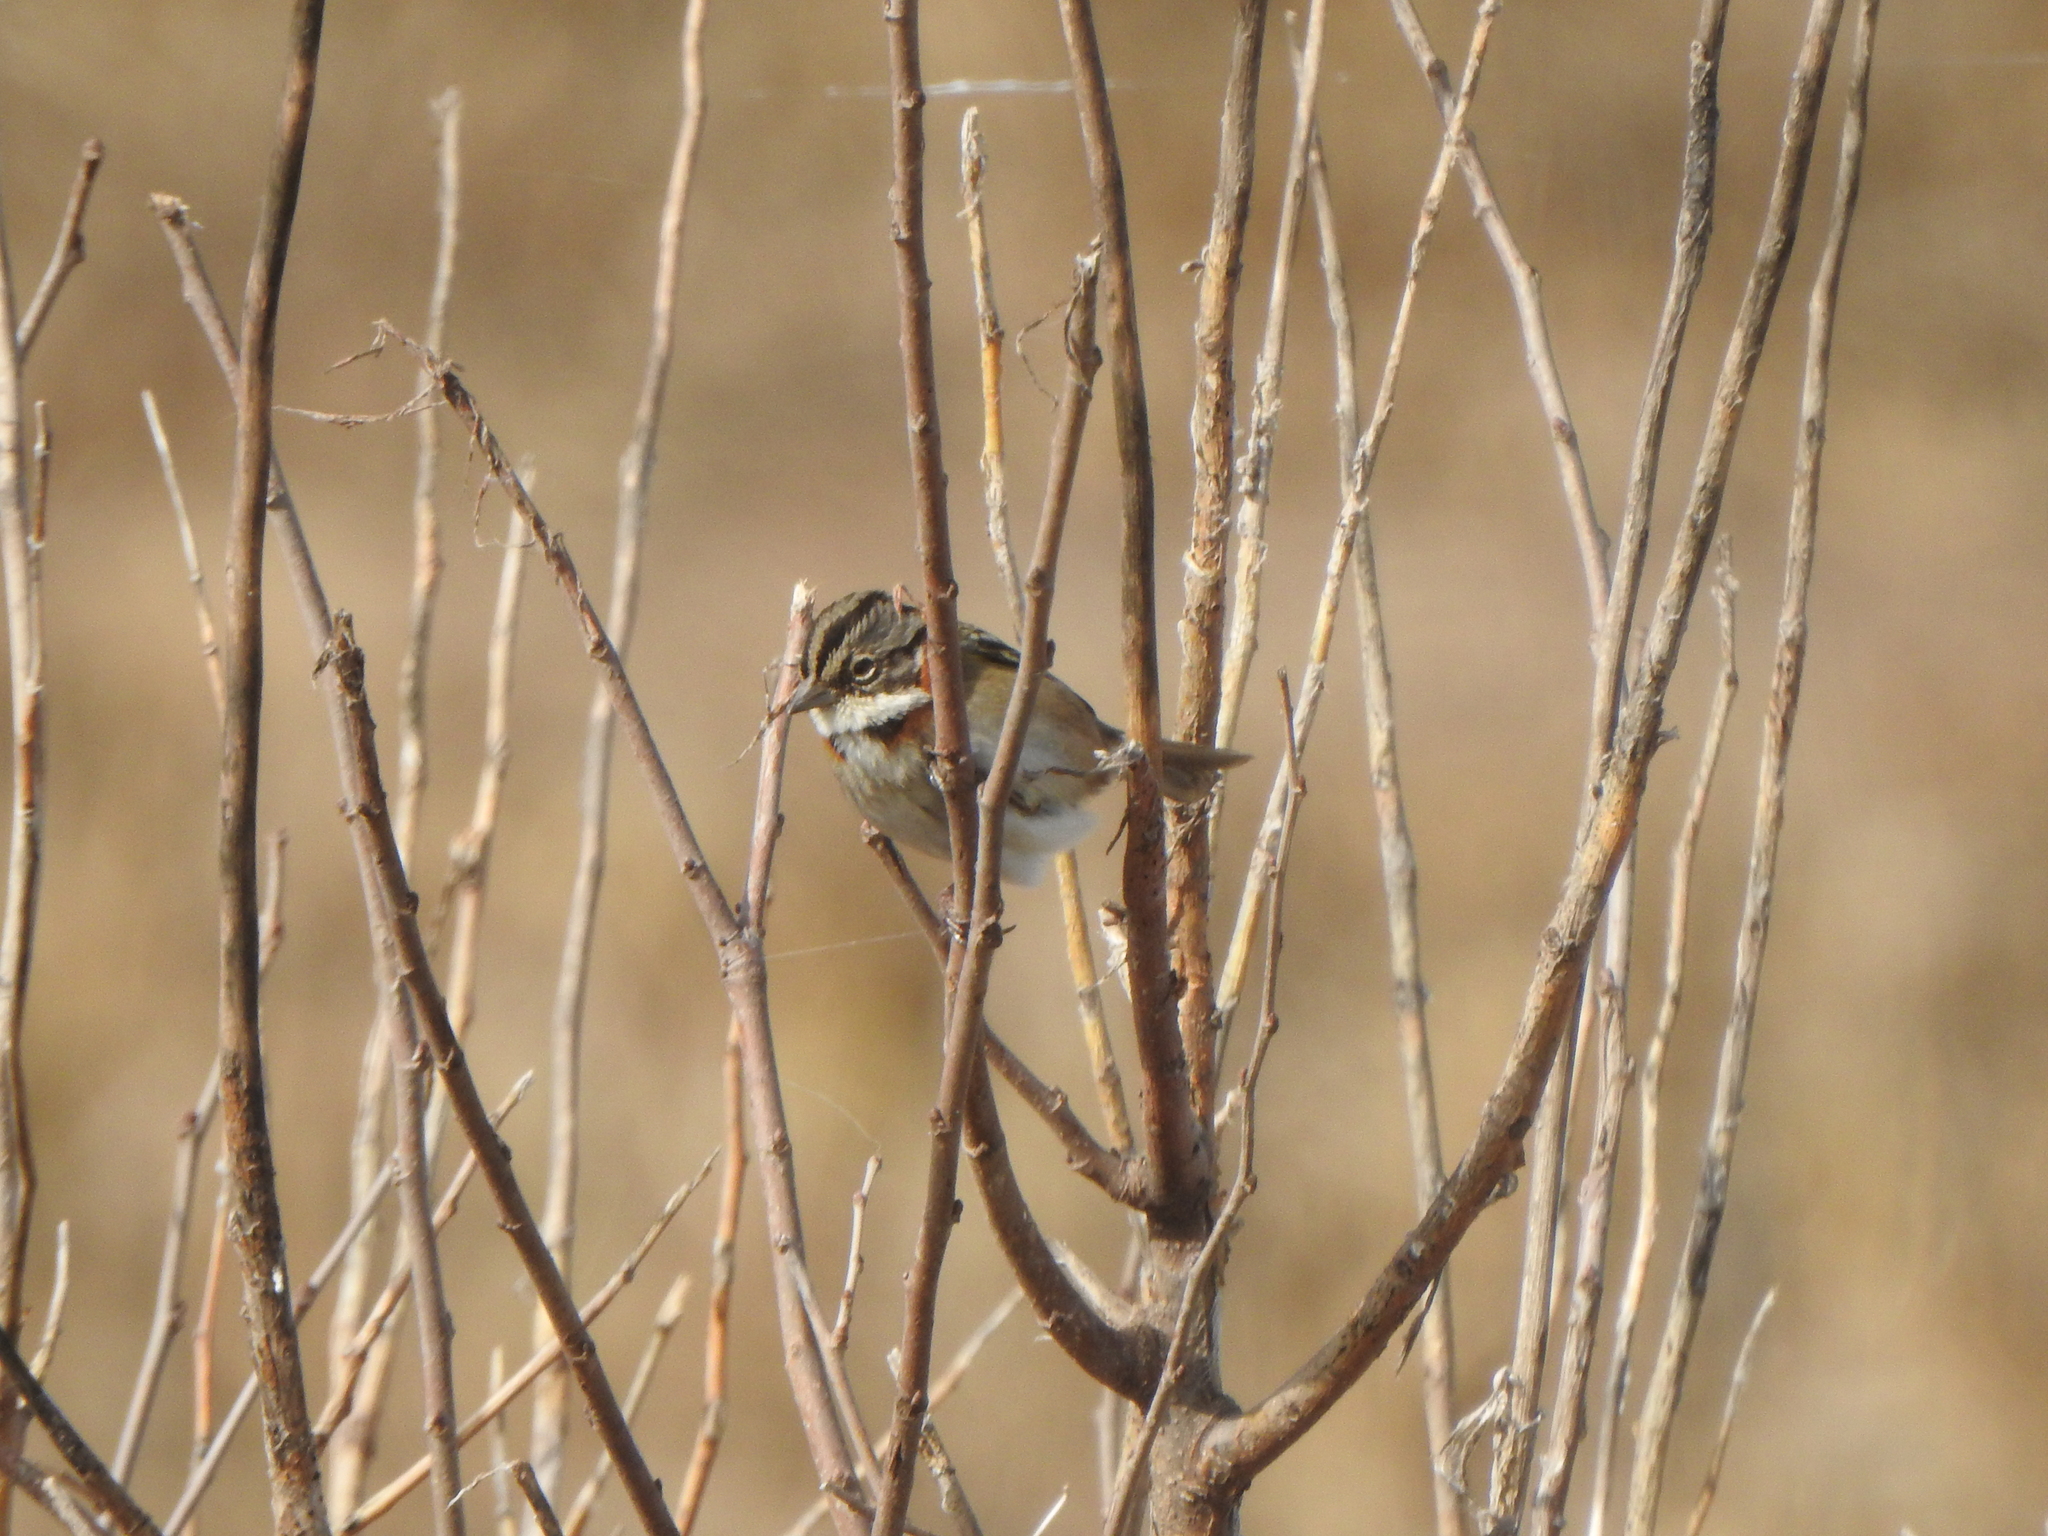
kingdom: Animalia
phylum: Chordata
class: Aves
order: Passeriformes
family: Passerellidae
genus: Zonotrichia
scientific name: Zonotrichia capensis
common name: Rufous-collared sparrow
